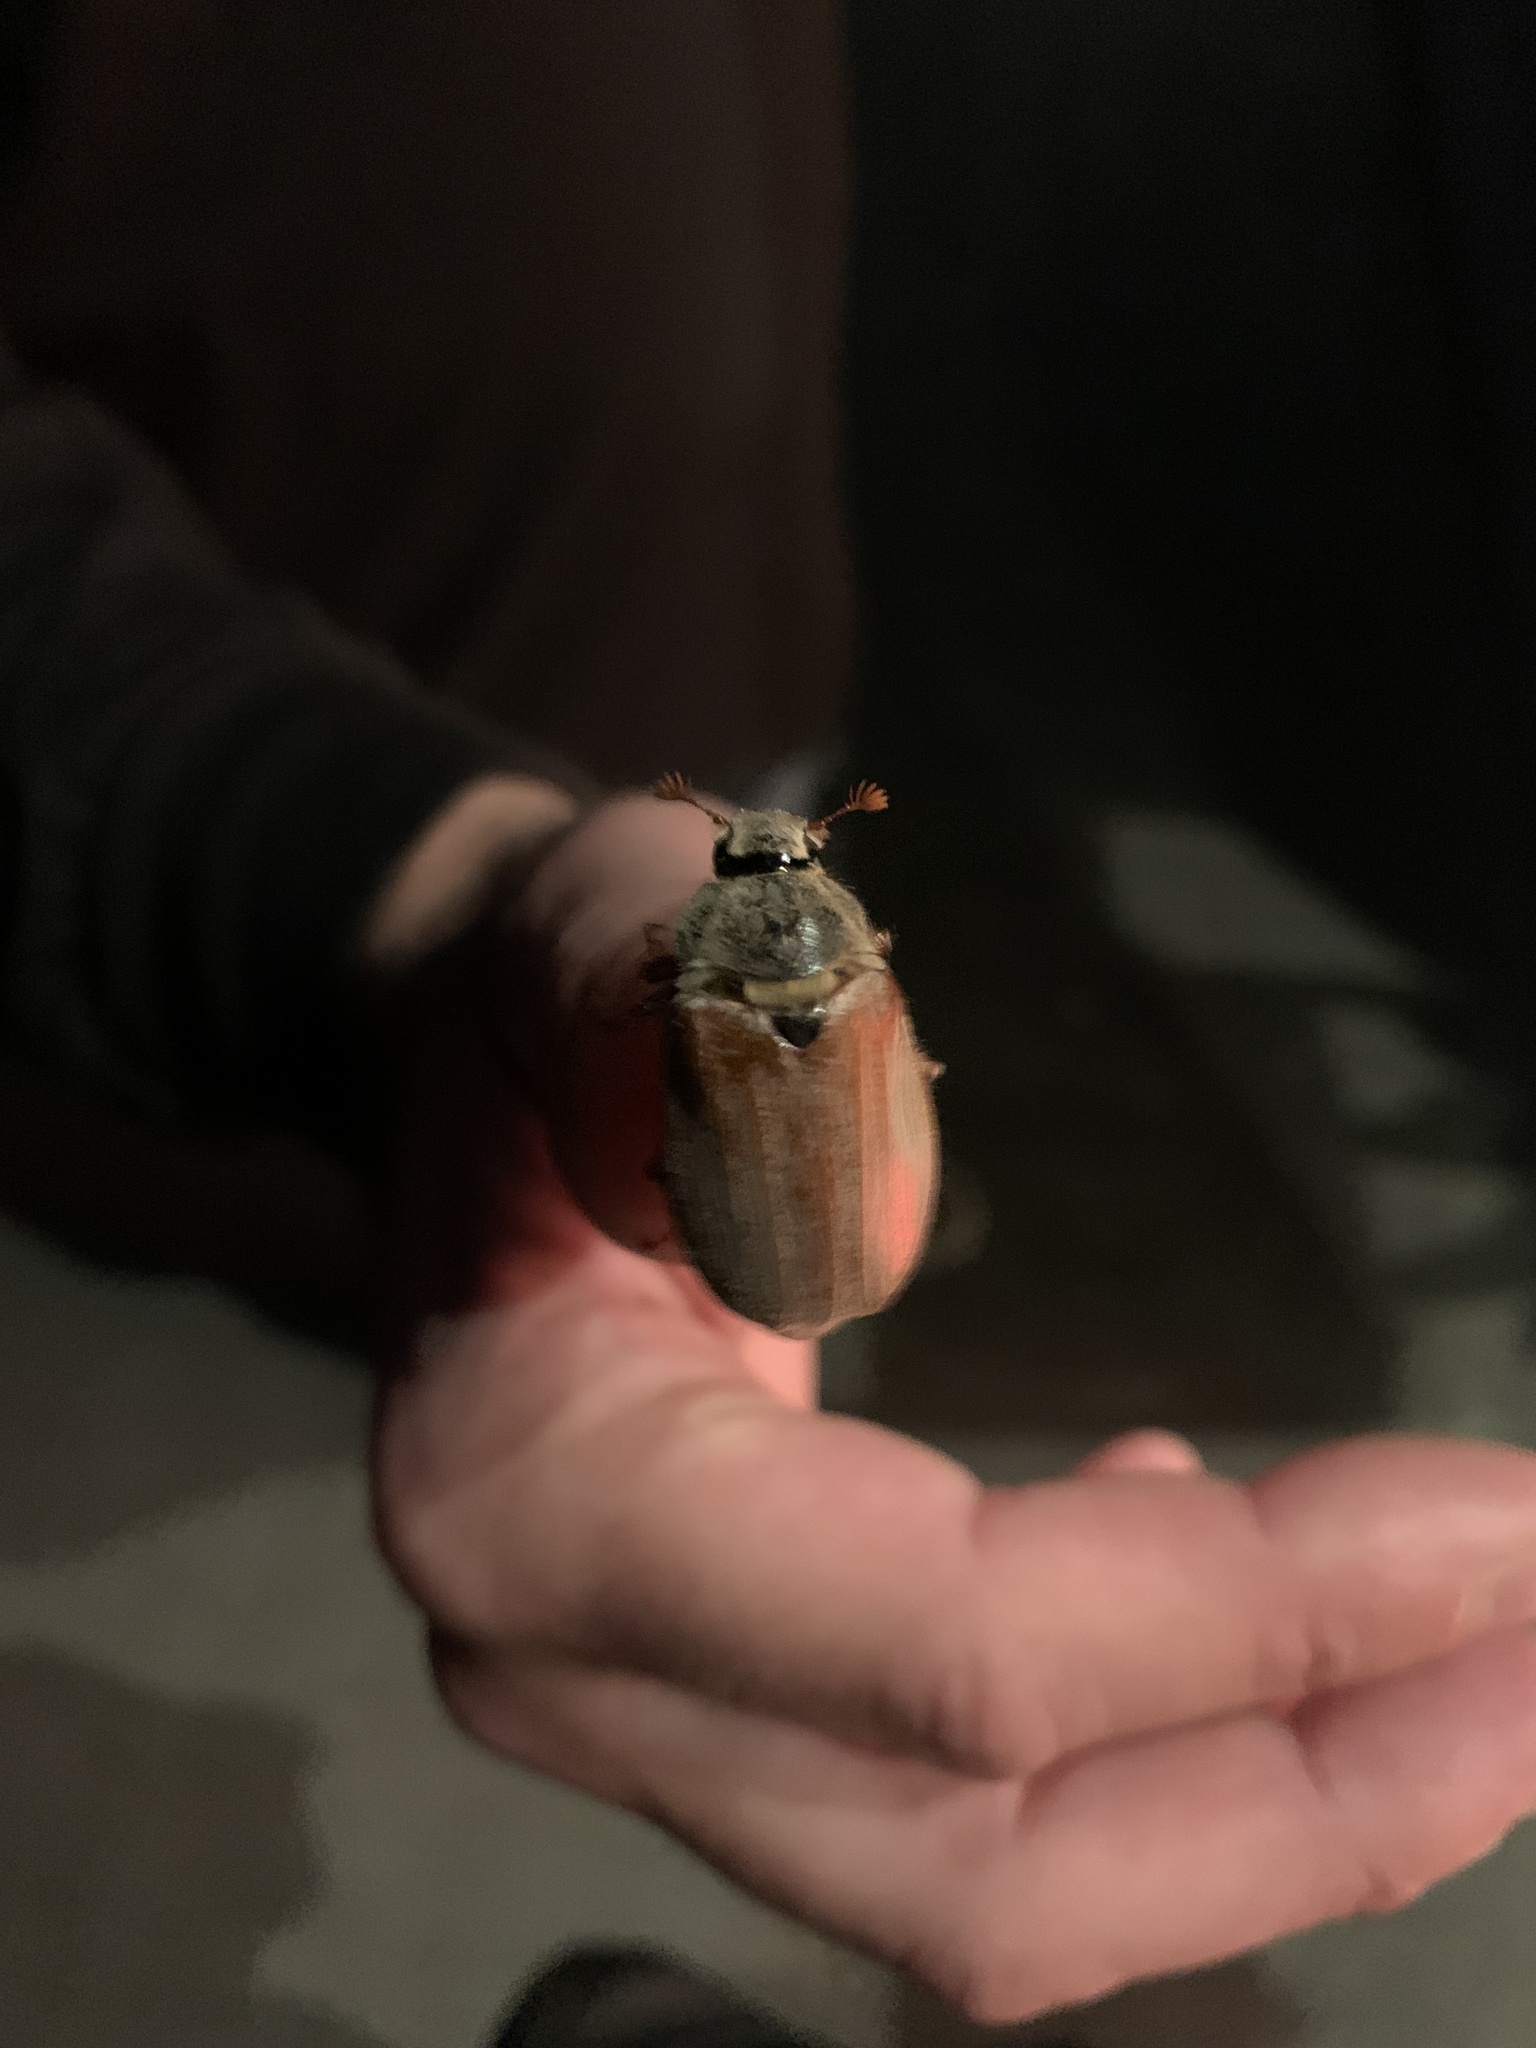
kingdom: Animalia
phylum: Arthropoda
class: Insecta
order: Coleoptera
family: Scarabaeidae
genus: Melolontha
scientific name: Melolontha melolontha
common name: Cockchafer maybeetle
